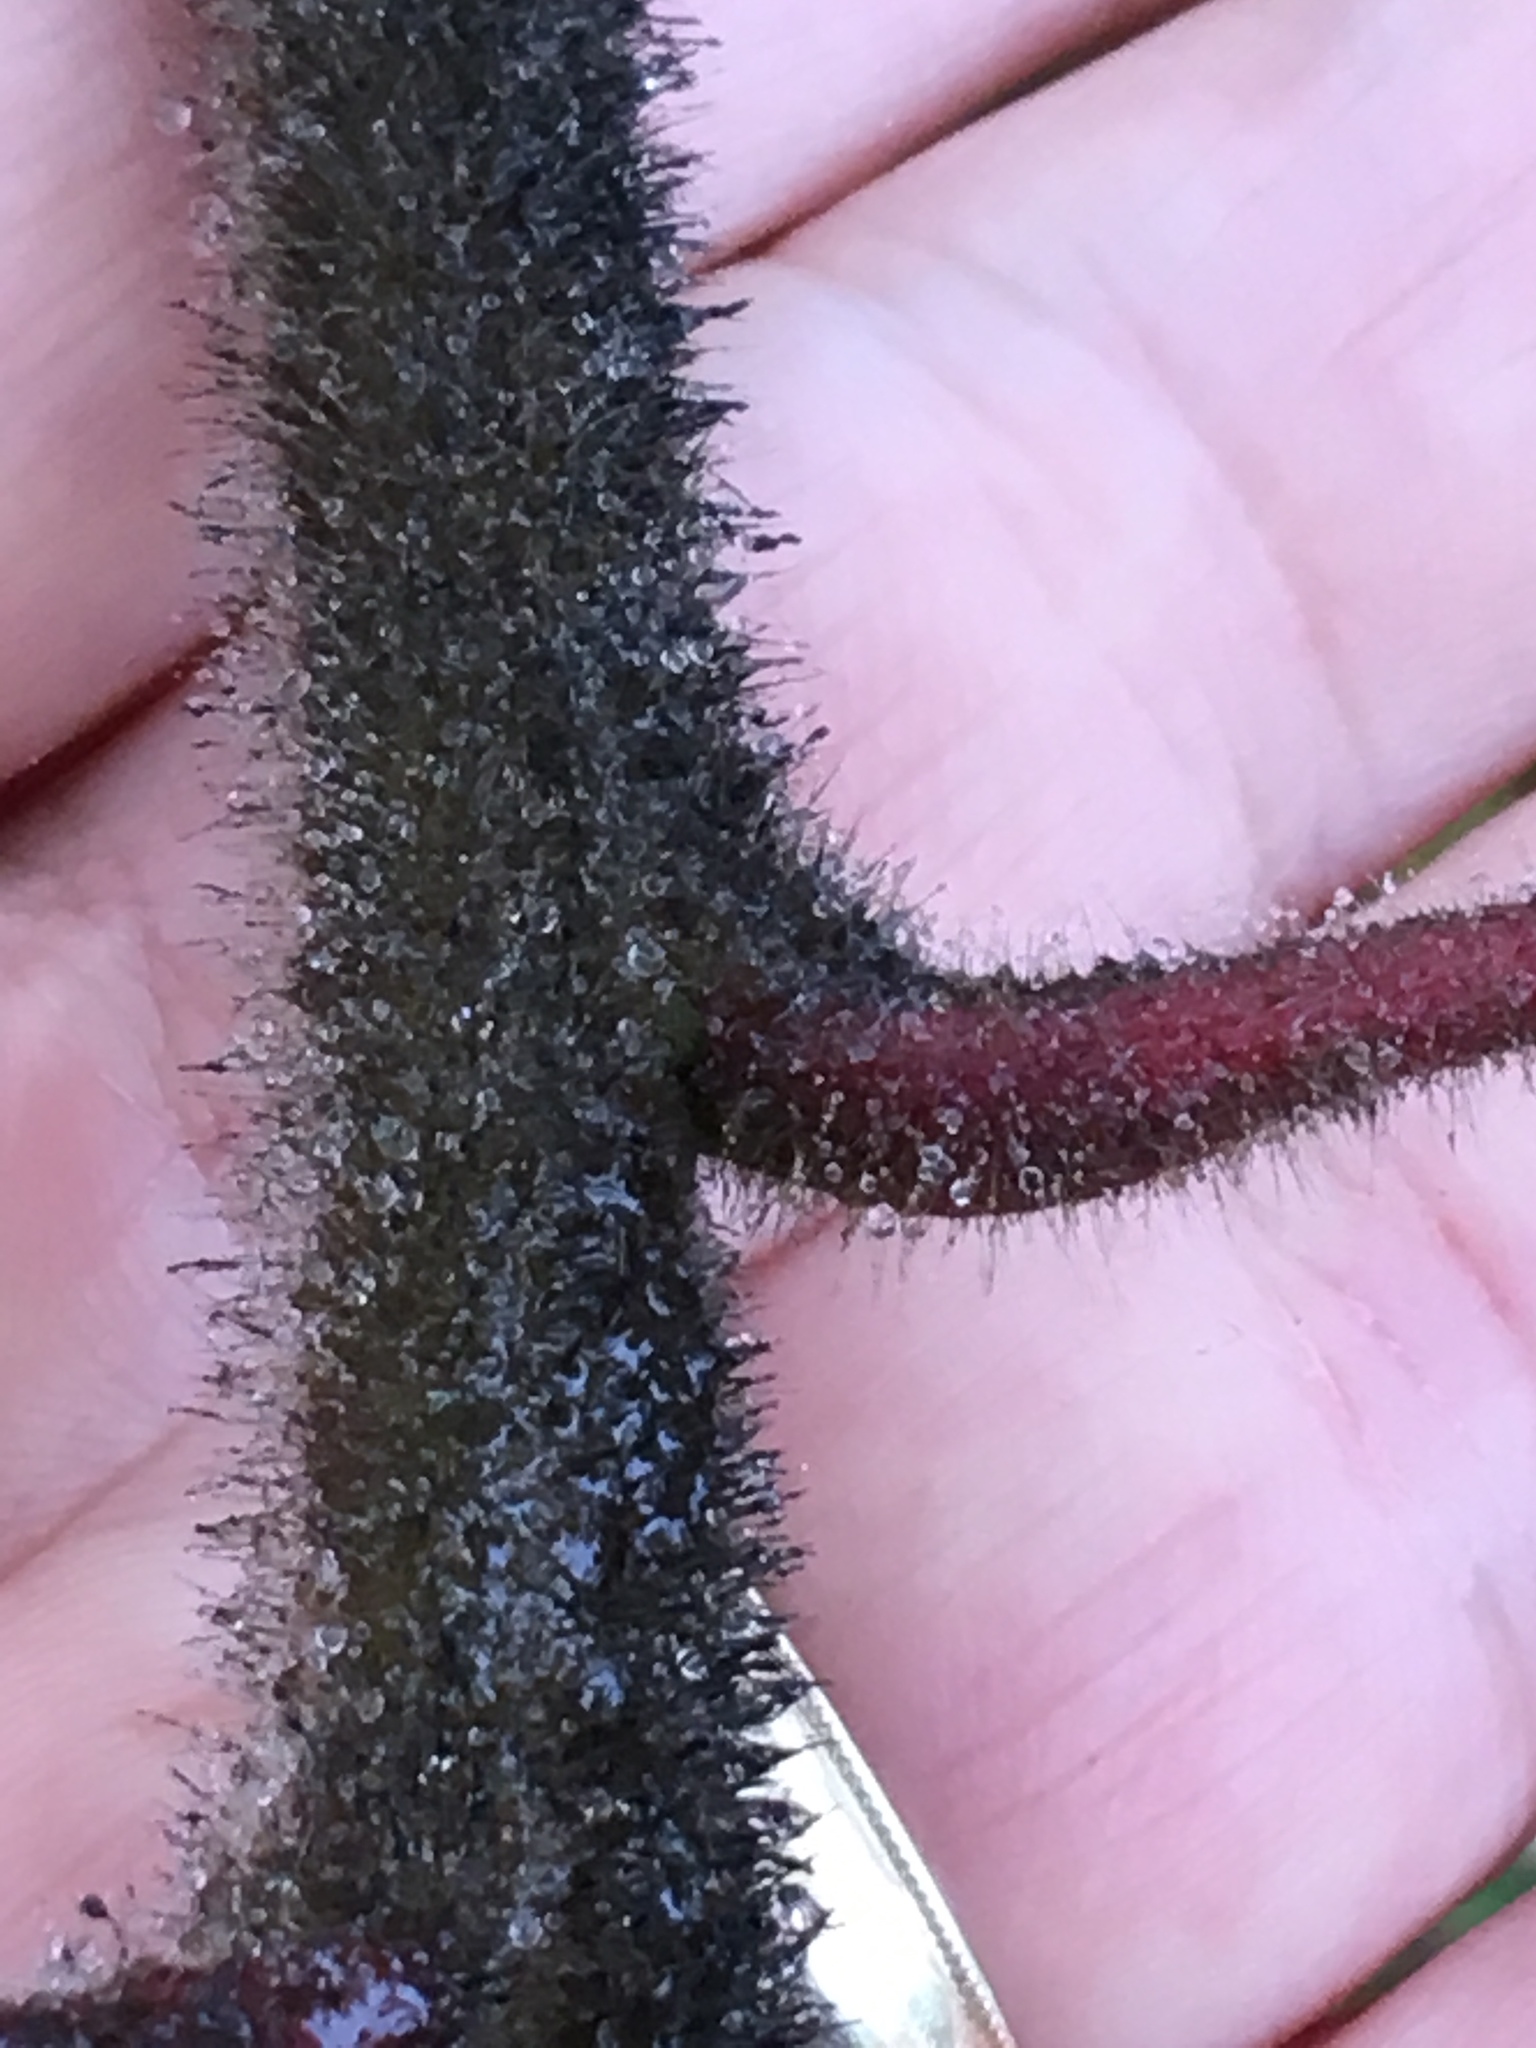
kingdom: Plantae
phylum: Tracheophyta
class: Magnoliopsida
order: Sapindales
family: Anacardiaceae
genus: Rhus
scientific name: Rhus typhina
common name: Staghorn sumac
